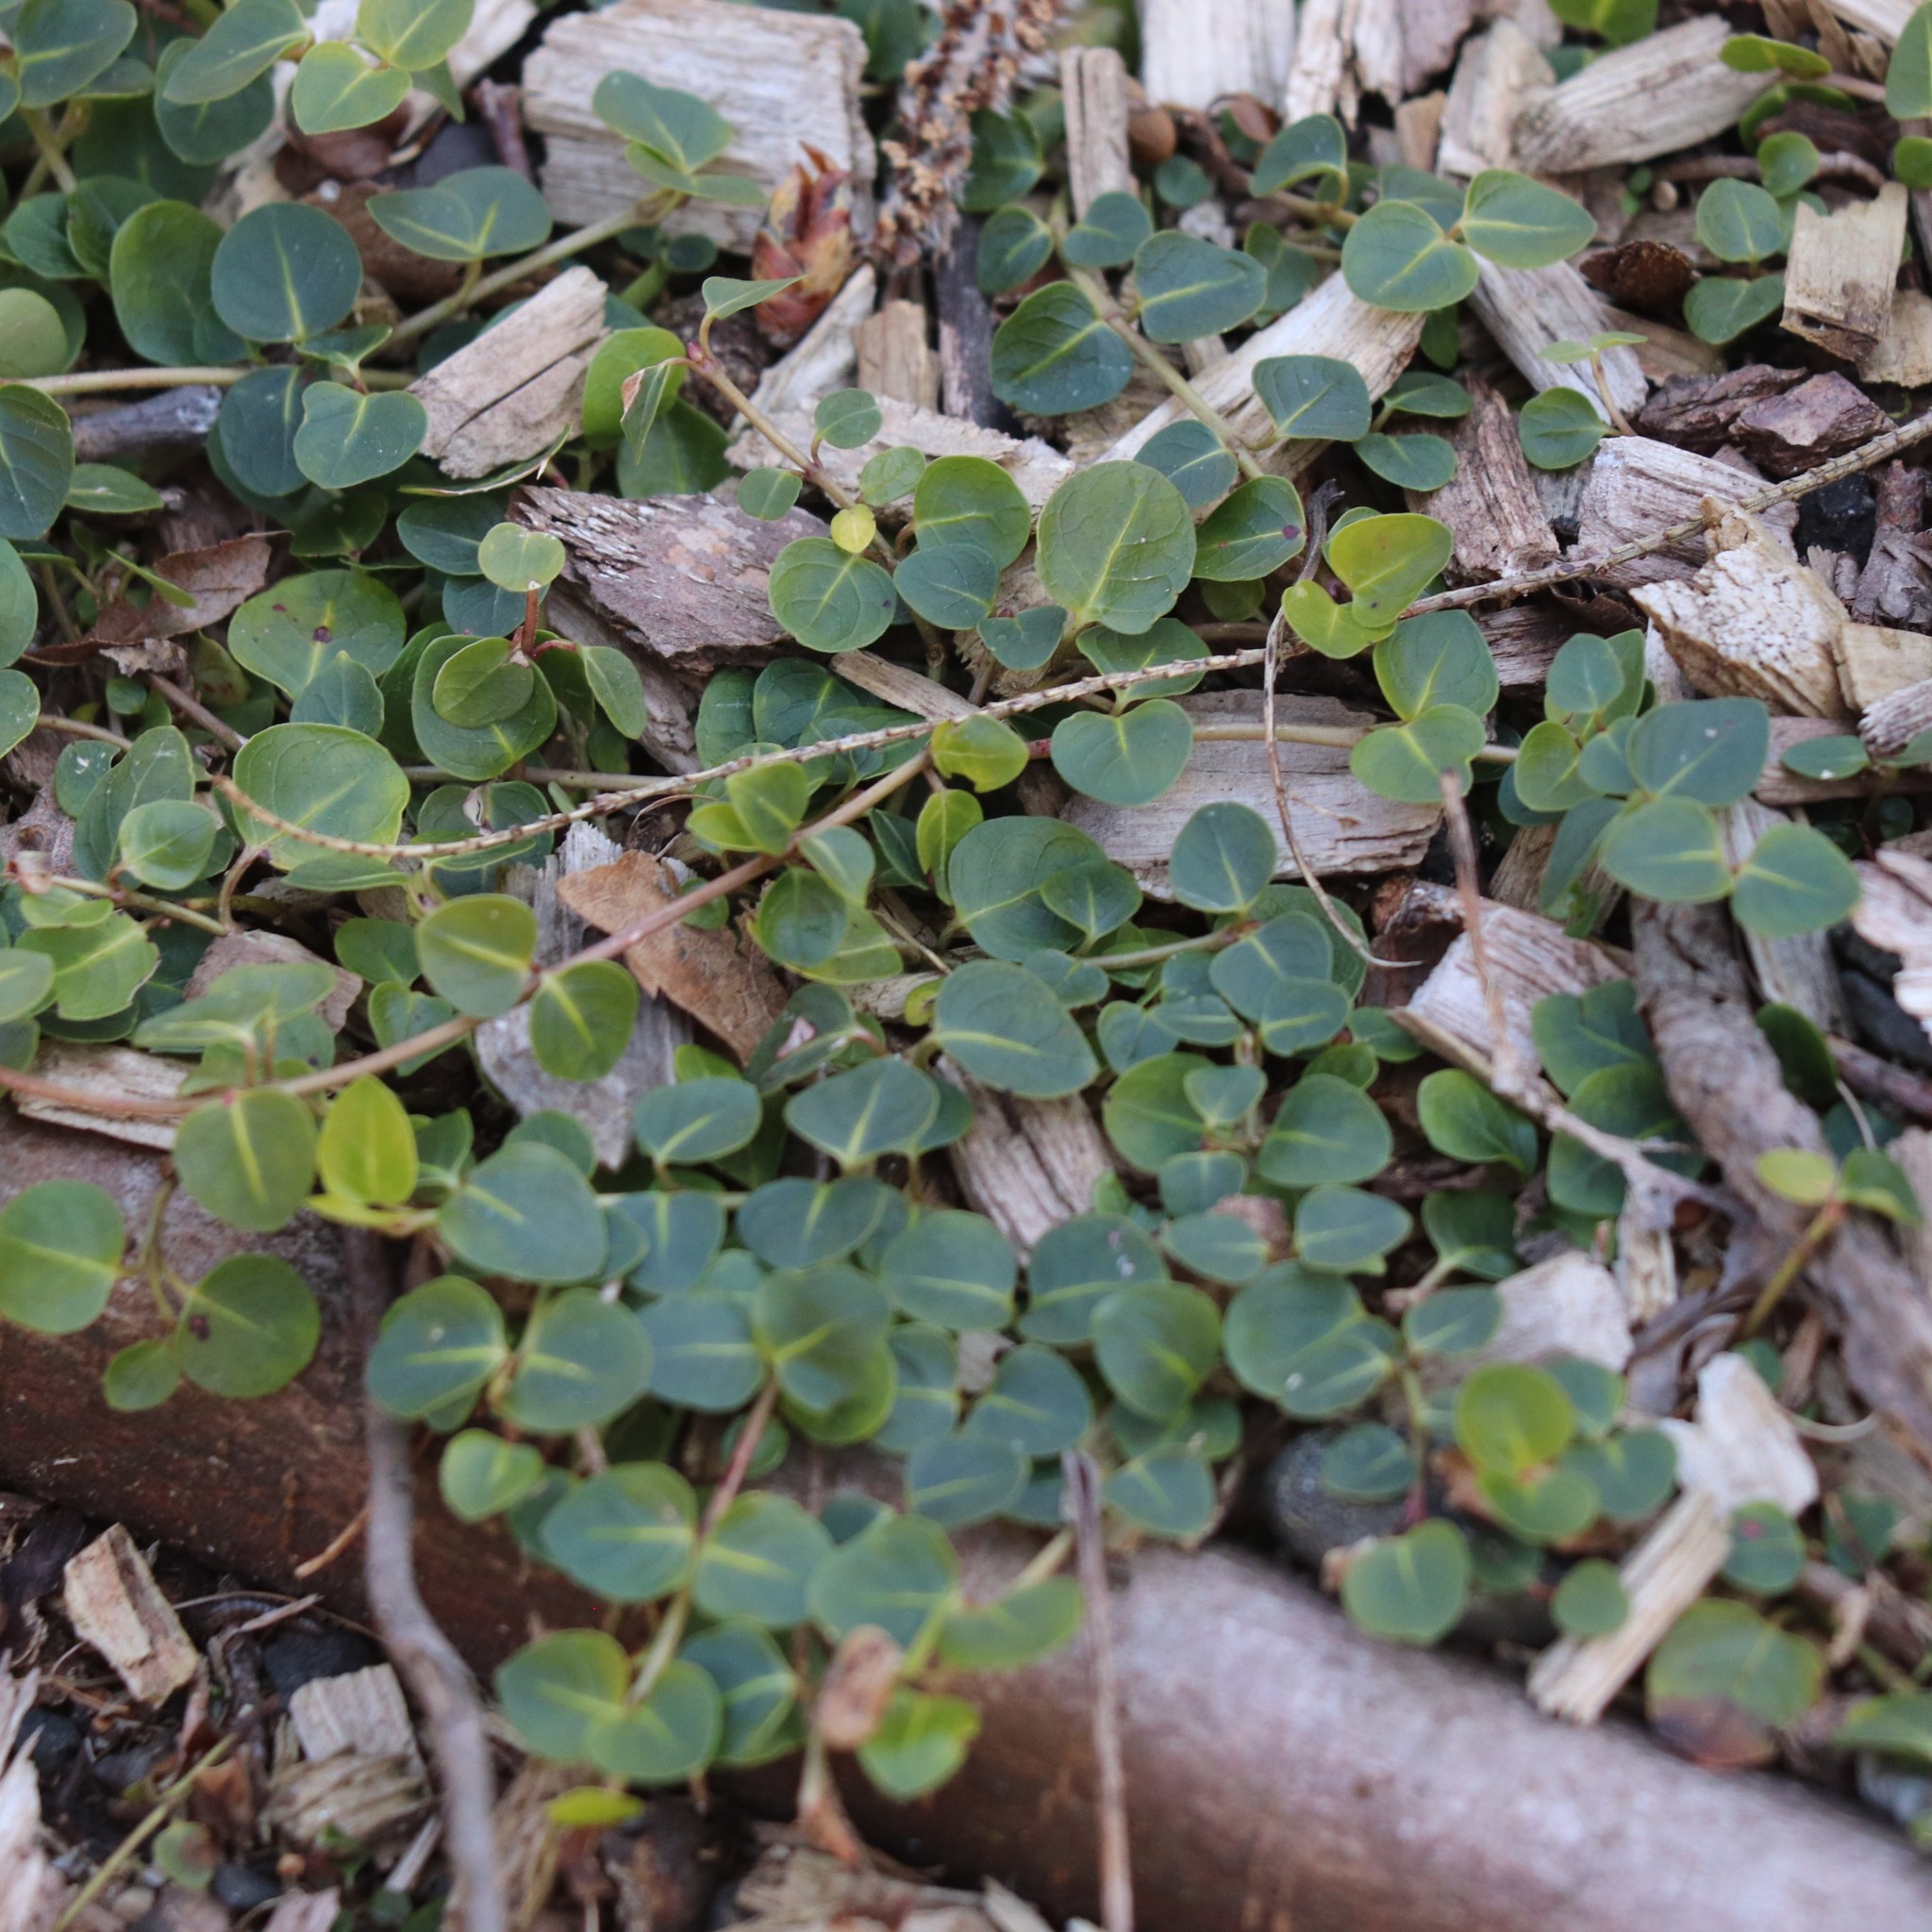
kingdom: Plantae
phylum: Tracheophyta
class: Magnoliopsida
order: Gentianales
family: Rubiaceae
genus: Mitchella
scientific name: Mitchella repens
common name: Partridge-berry
